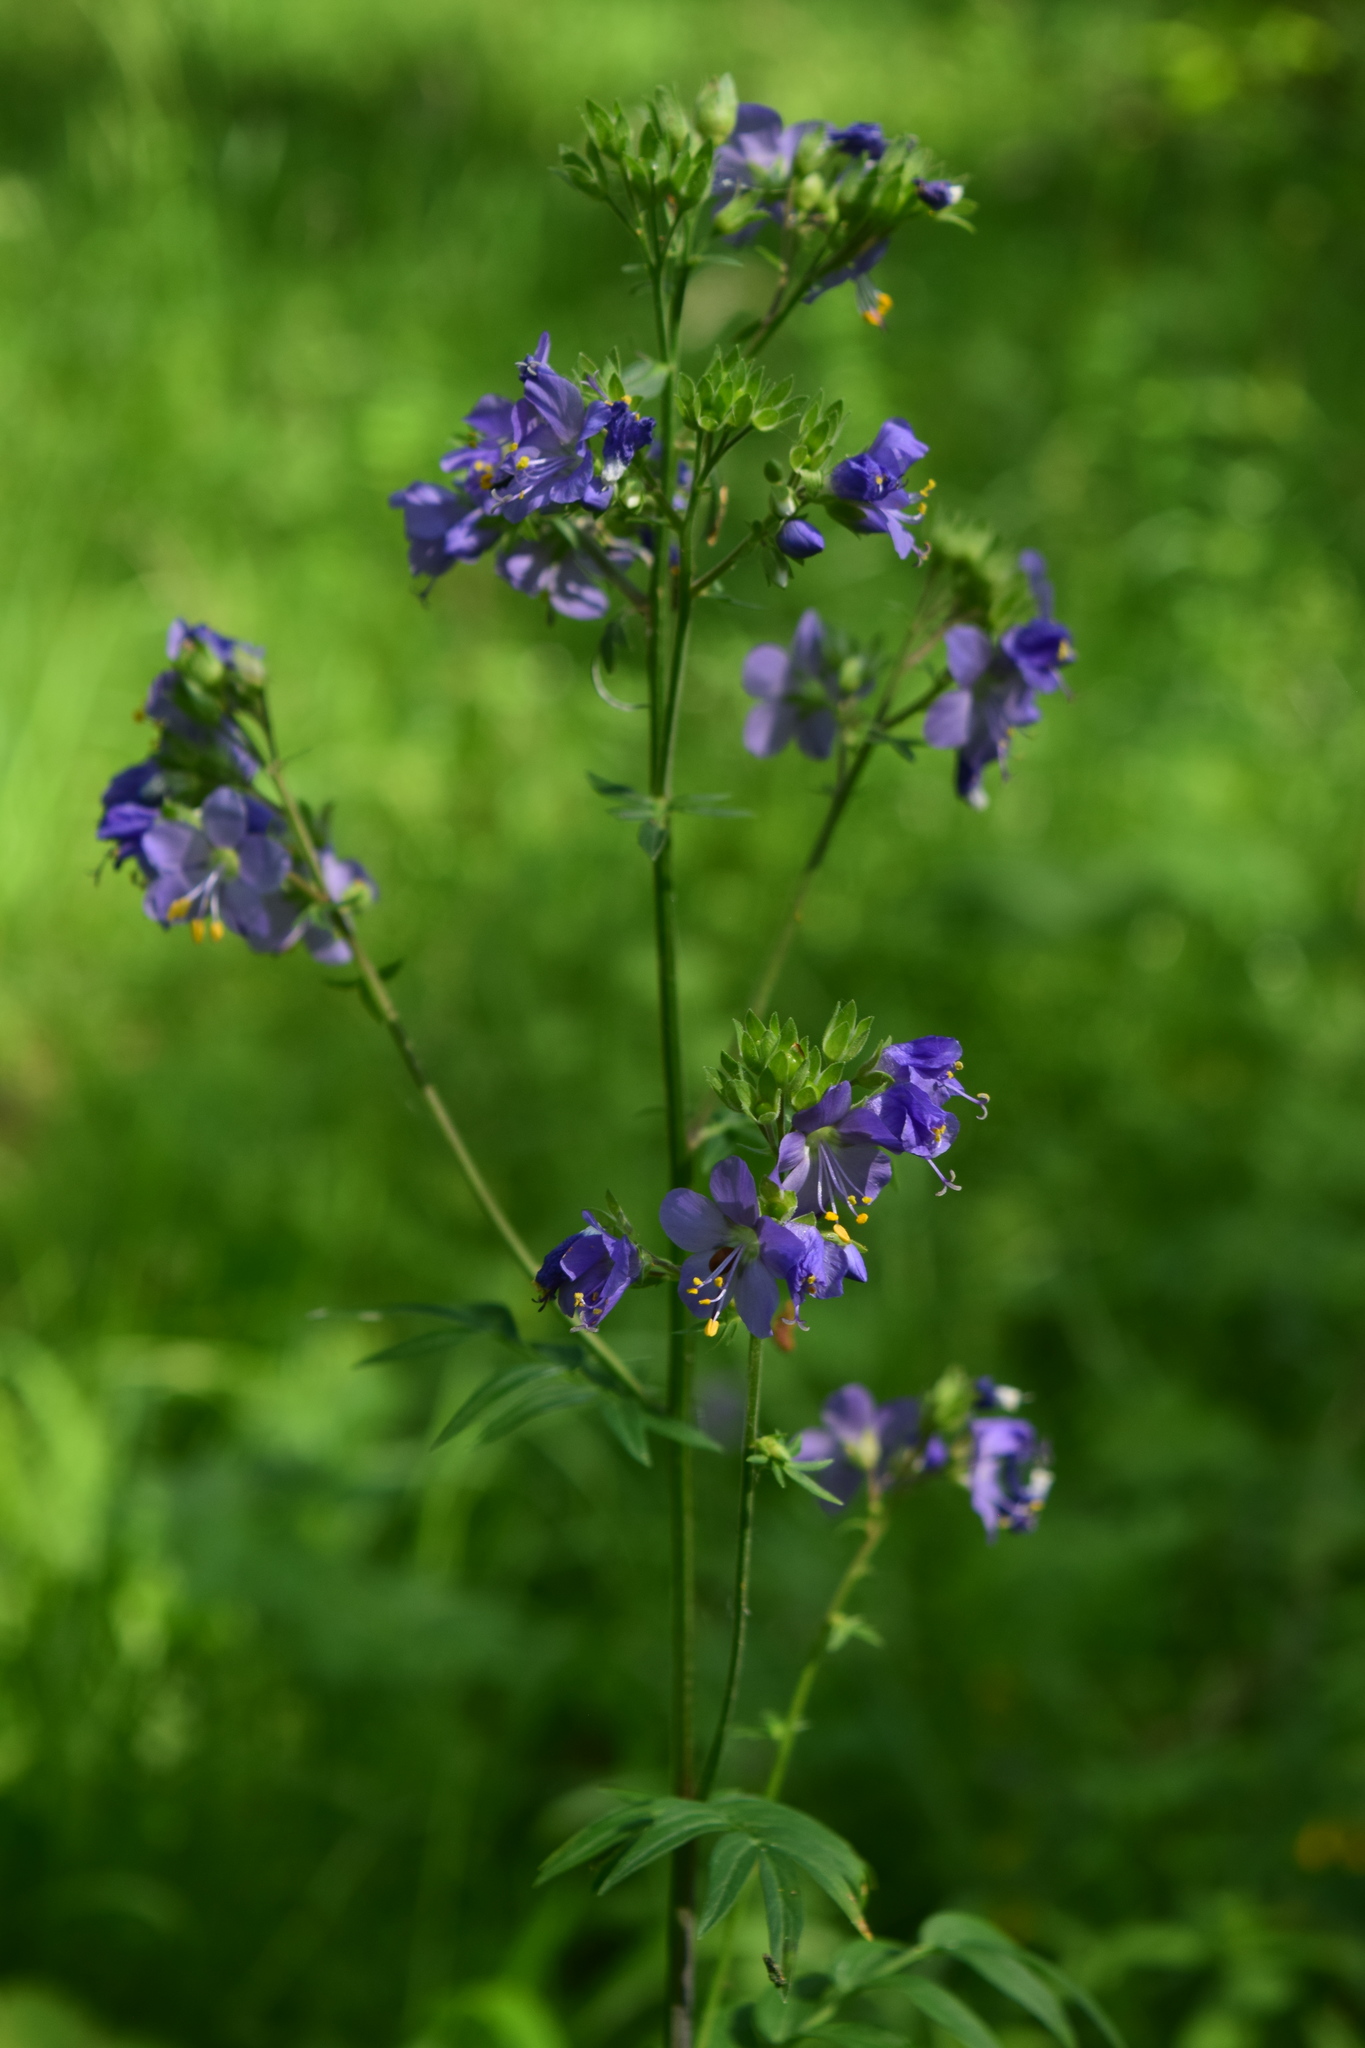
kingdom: Plantae
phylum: Tracheophyta
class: Magnoliopsida
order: Ericales
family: Polemoniaceae
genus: Polemonium
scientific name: Polemonium caeruleum
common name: Jacob's-ladder
